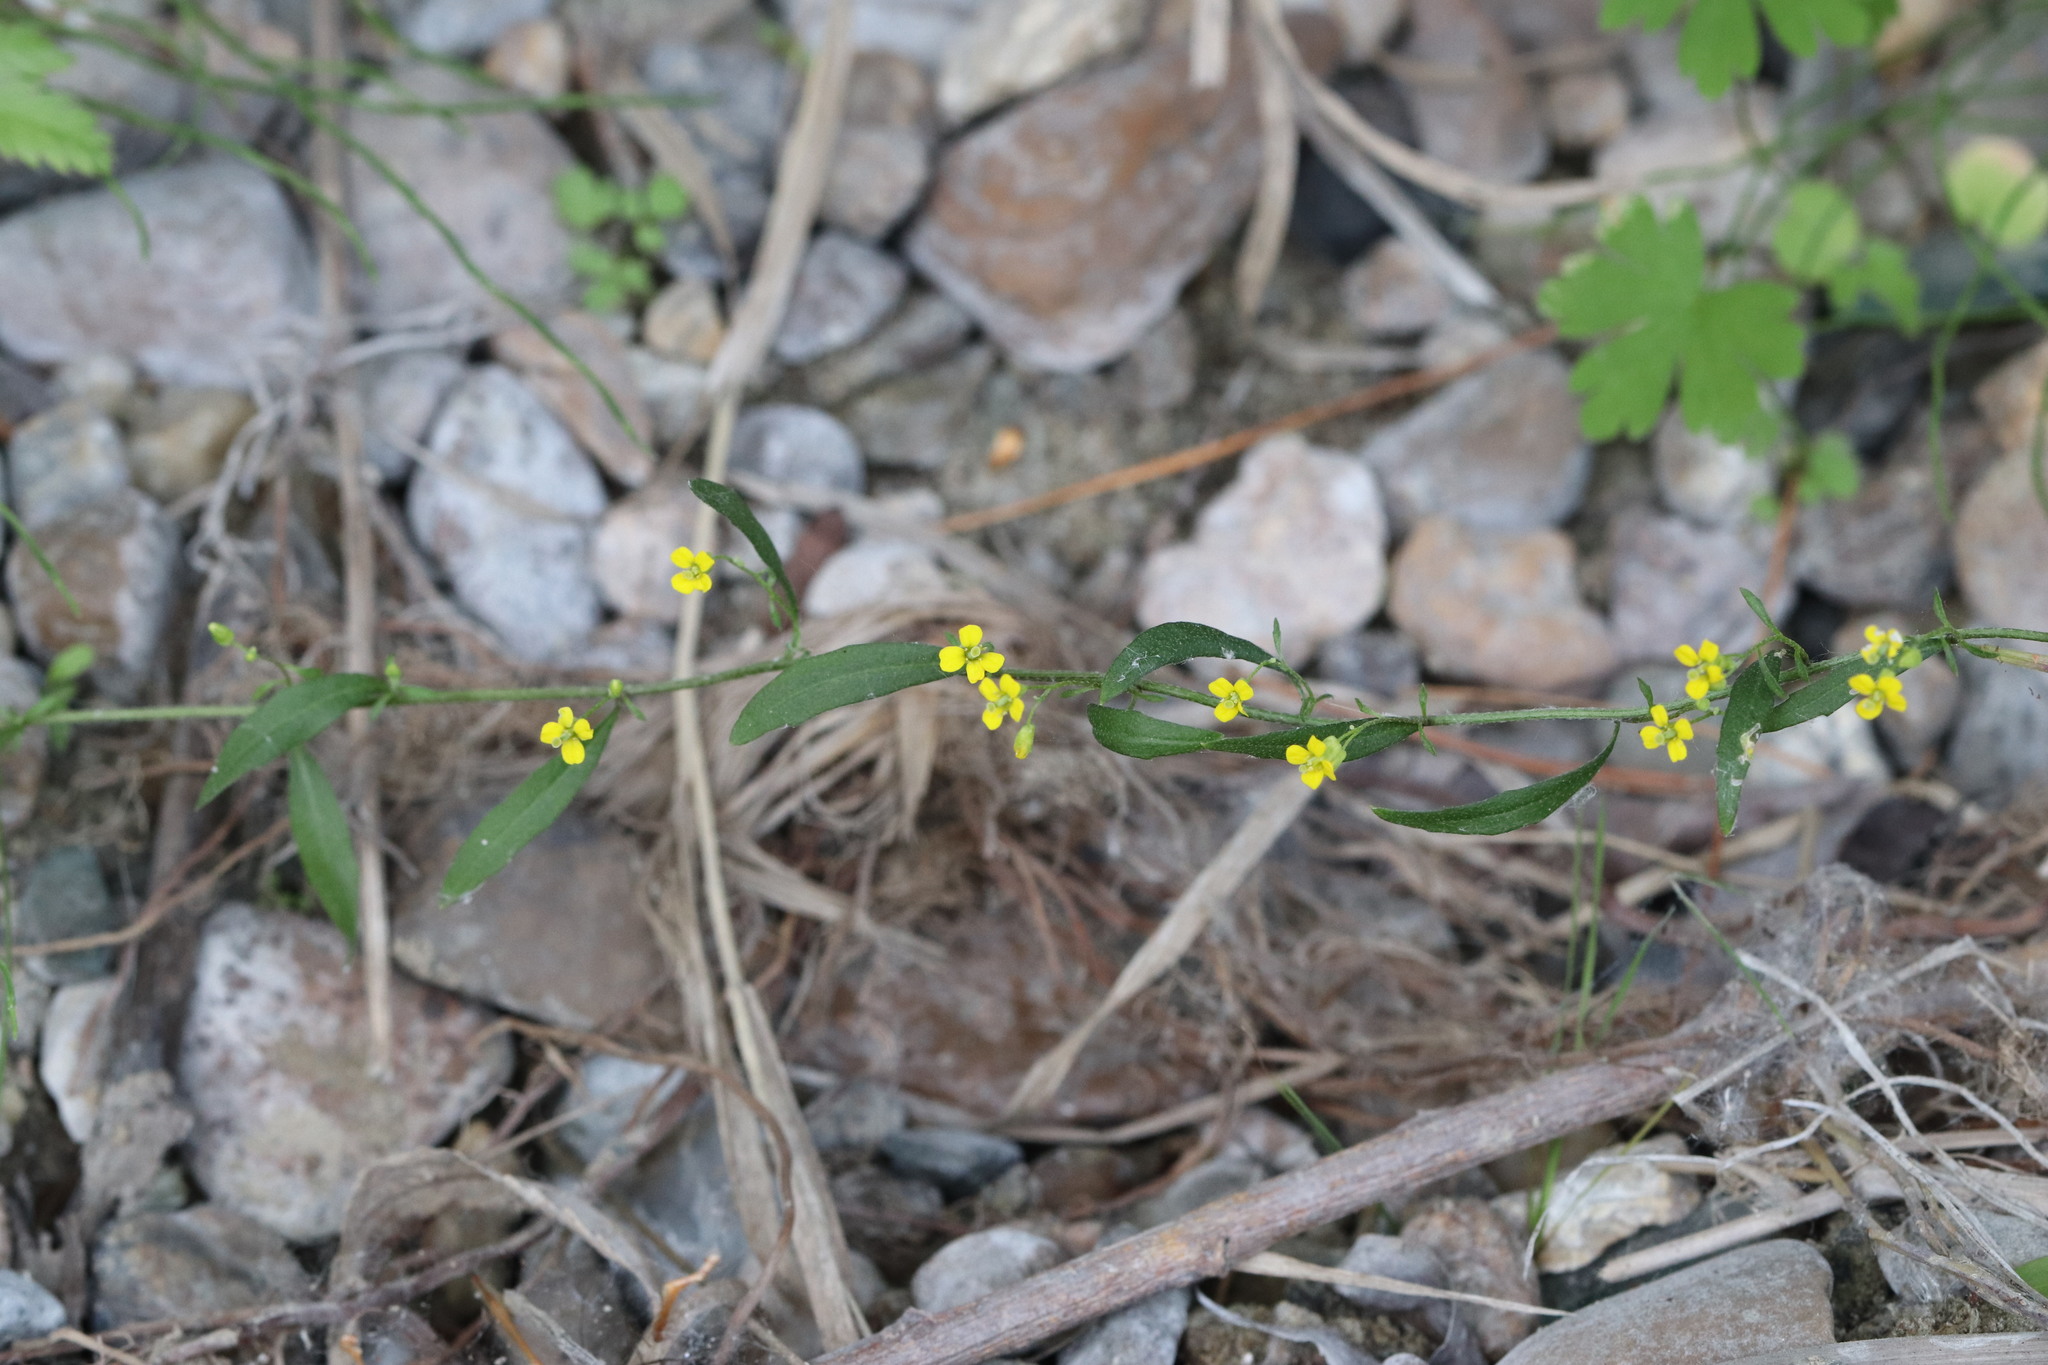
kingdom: Plantae
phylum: Tracheophyta
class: Magnoliopsida
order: Brassicales
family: Brassicaceae
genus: Erysimum
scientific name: Erysimum cheiranthoides
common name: Treacle mustard
